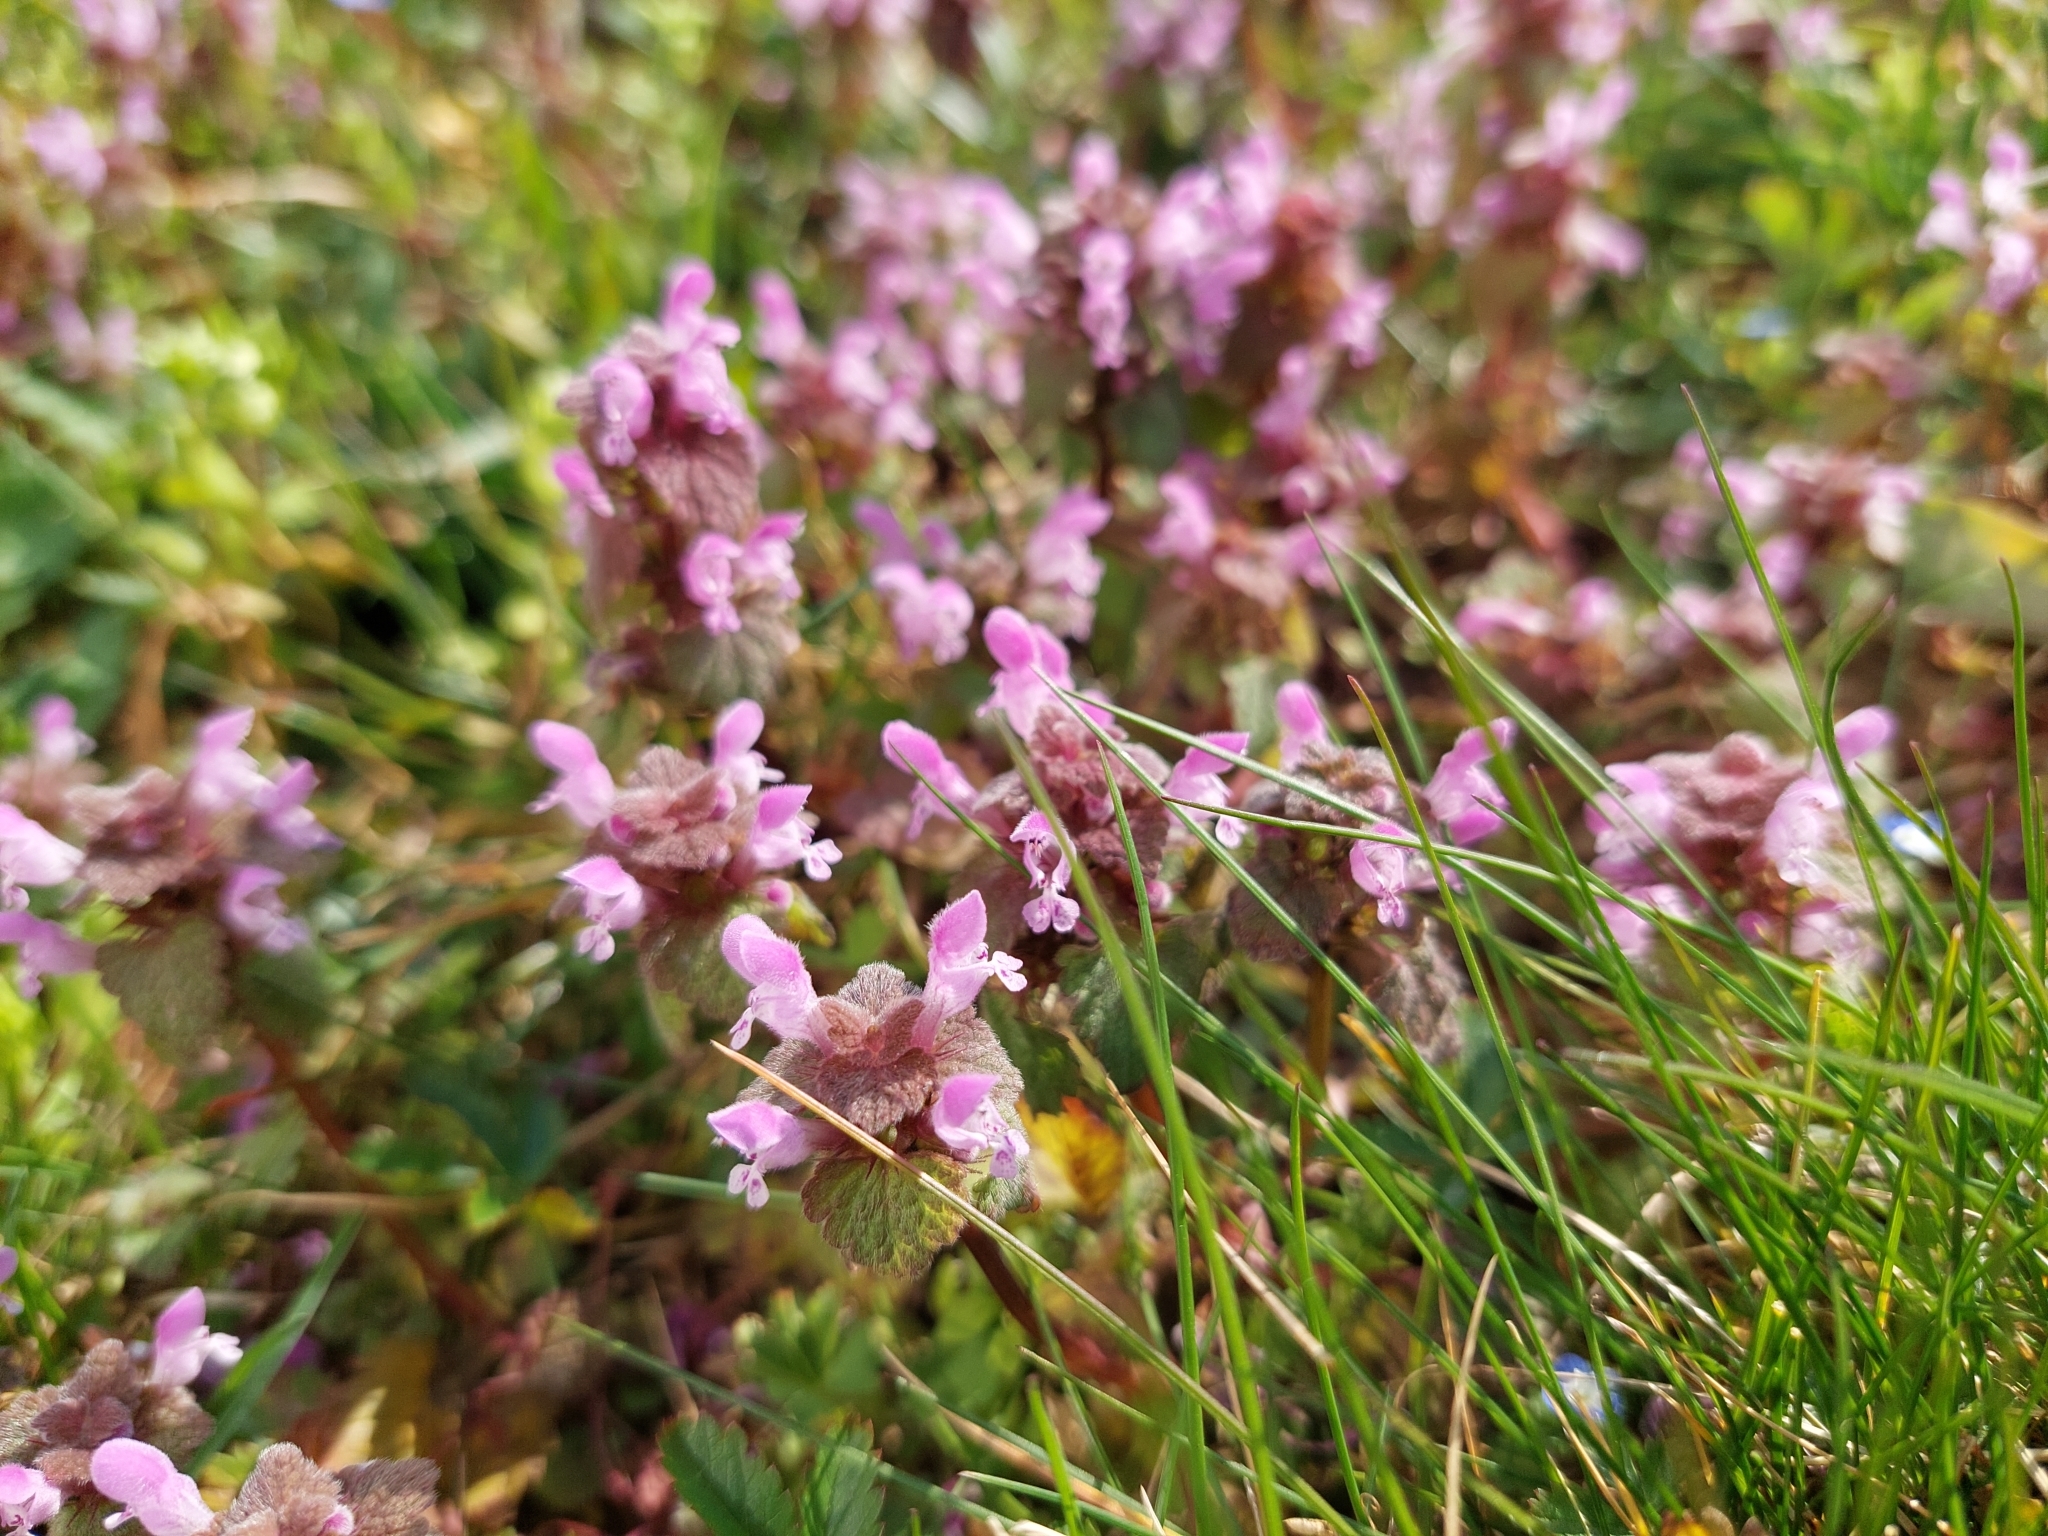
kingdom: Plantae
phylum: Tracheophyta
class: Magnoliopsida
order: Lamiales
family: Lamiaceae
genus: Lamium
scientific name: Lamium purpureum
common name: Red dead-nettle
